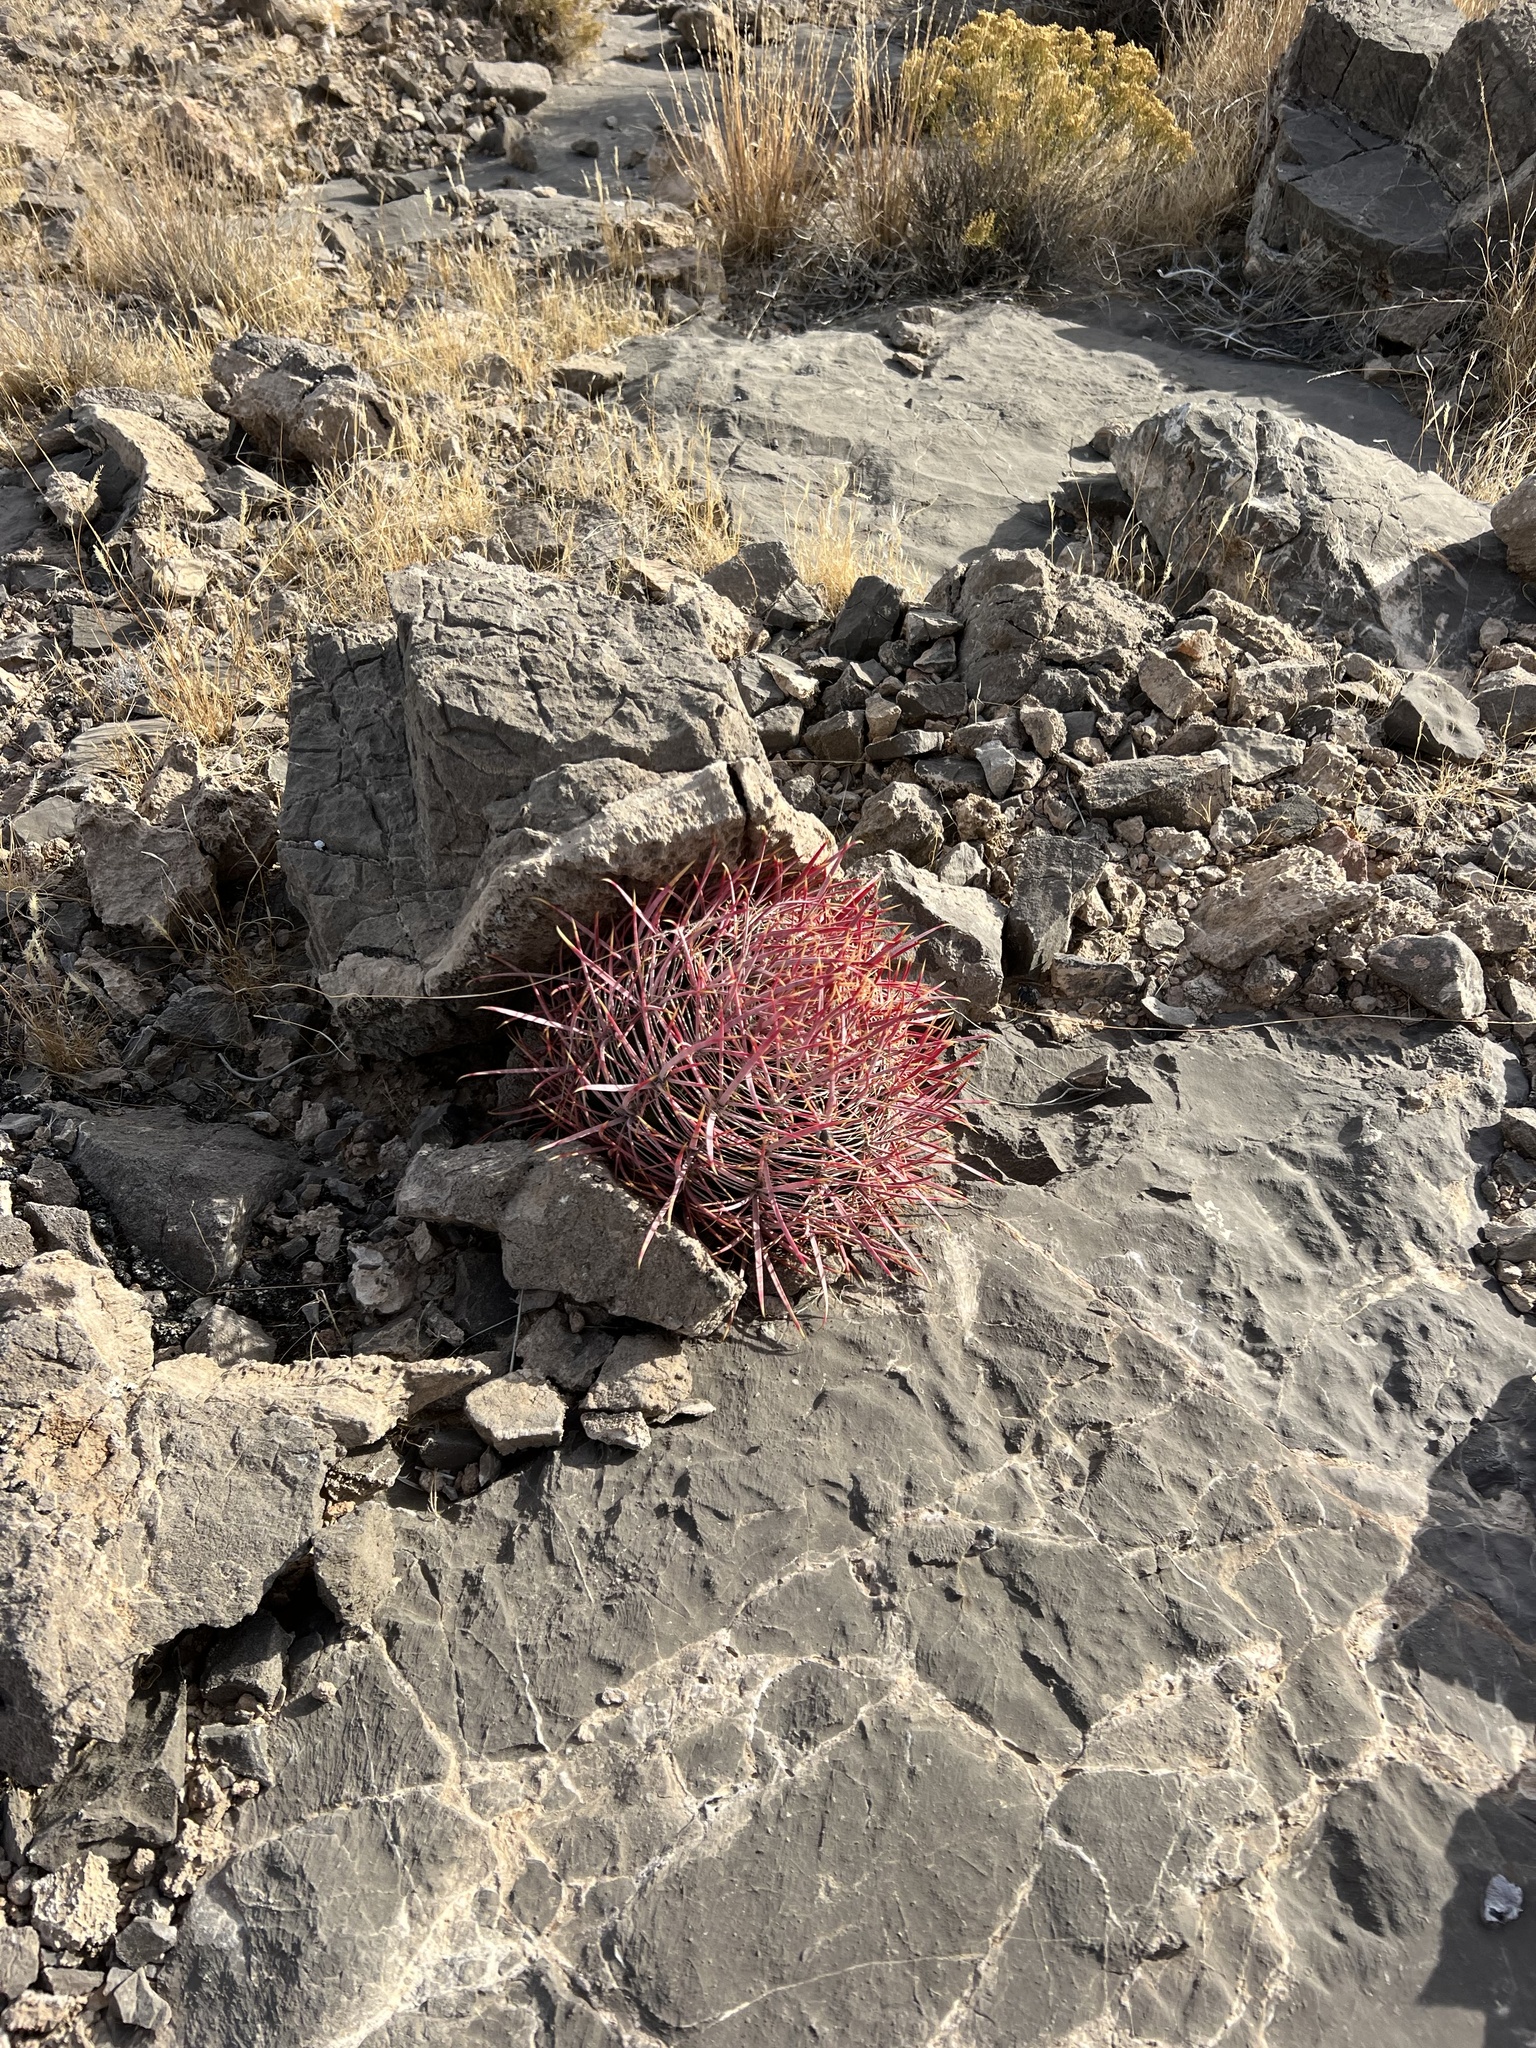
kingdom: Plantae
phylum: Tracheophyta
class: Magnoliopsida
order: Caryophyllales
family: Cactaceae
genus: Ferocactus
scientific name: Ferocactus cylindraceus
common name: California barrel cactus
